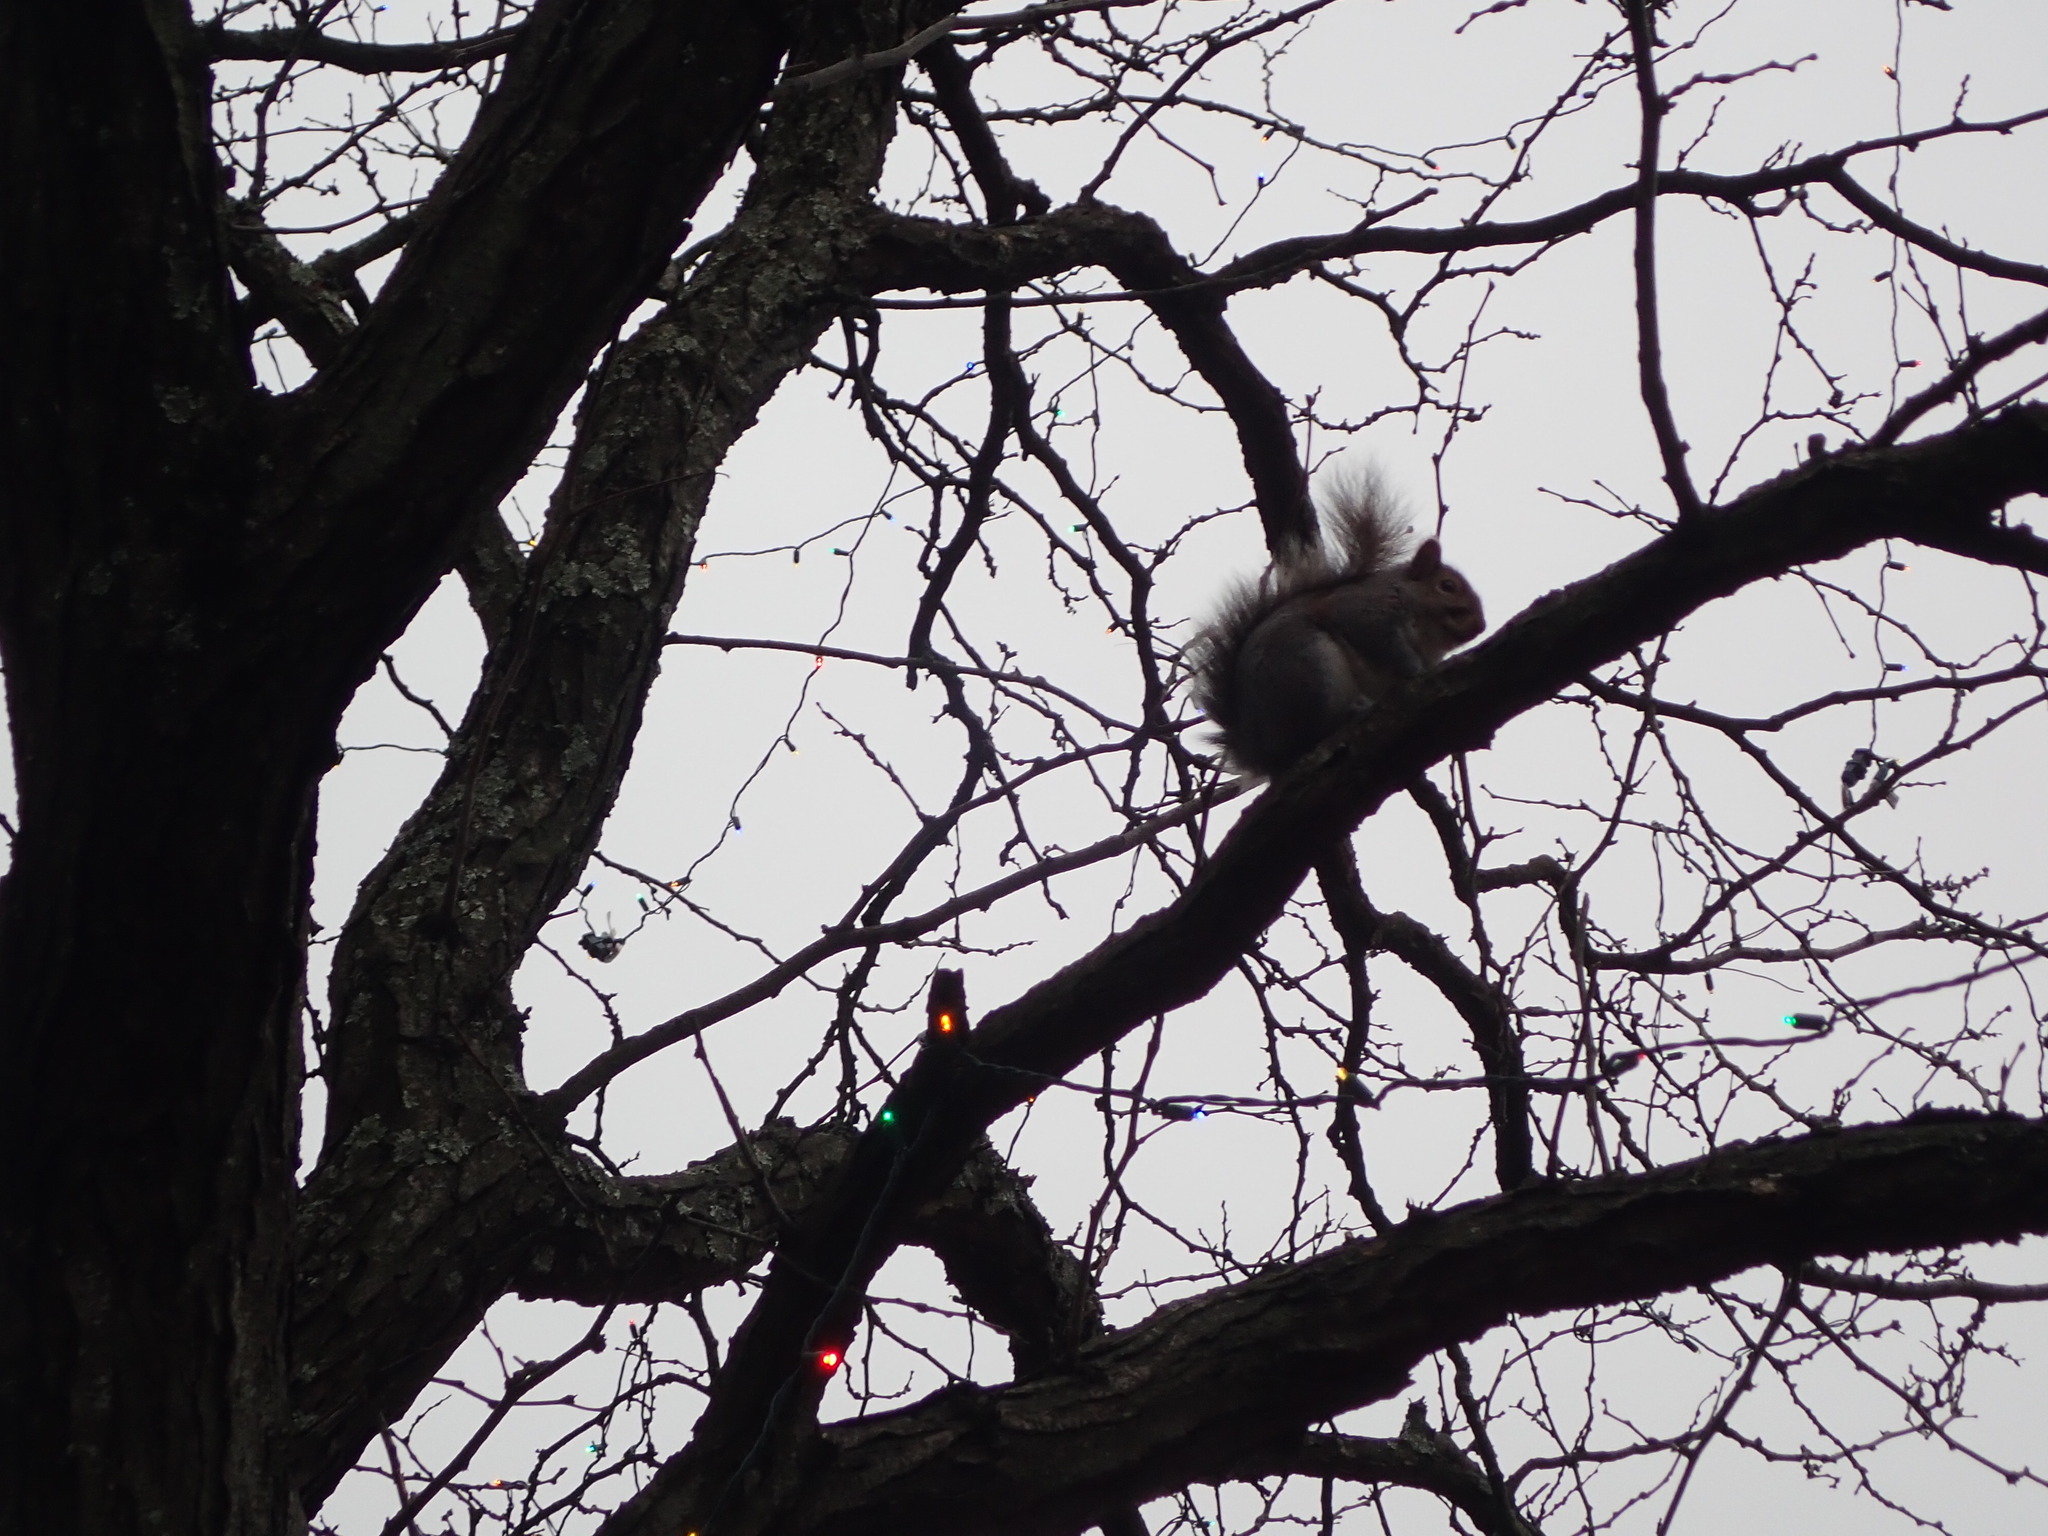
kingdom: Animalia
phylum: Chordata
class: Mammalia
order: Rodentia
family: Sciuridae
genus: Sciurus
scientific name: Sciurus carolinensis
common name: Eastern gray squirrel
